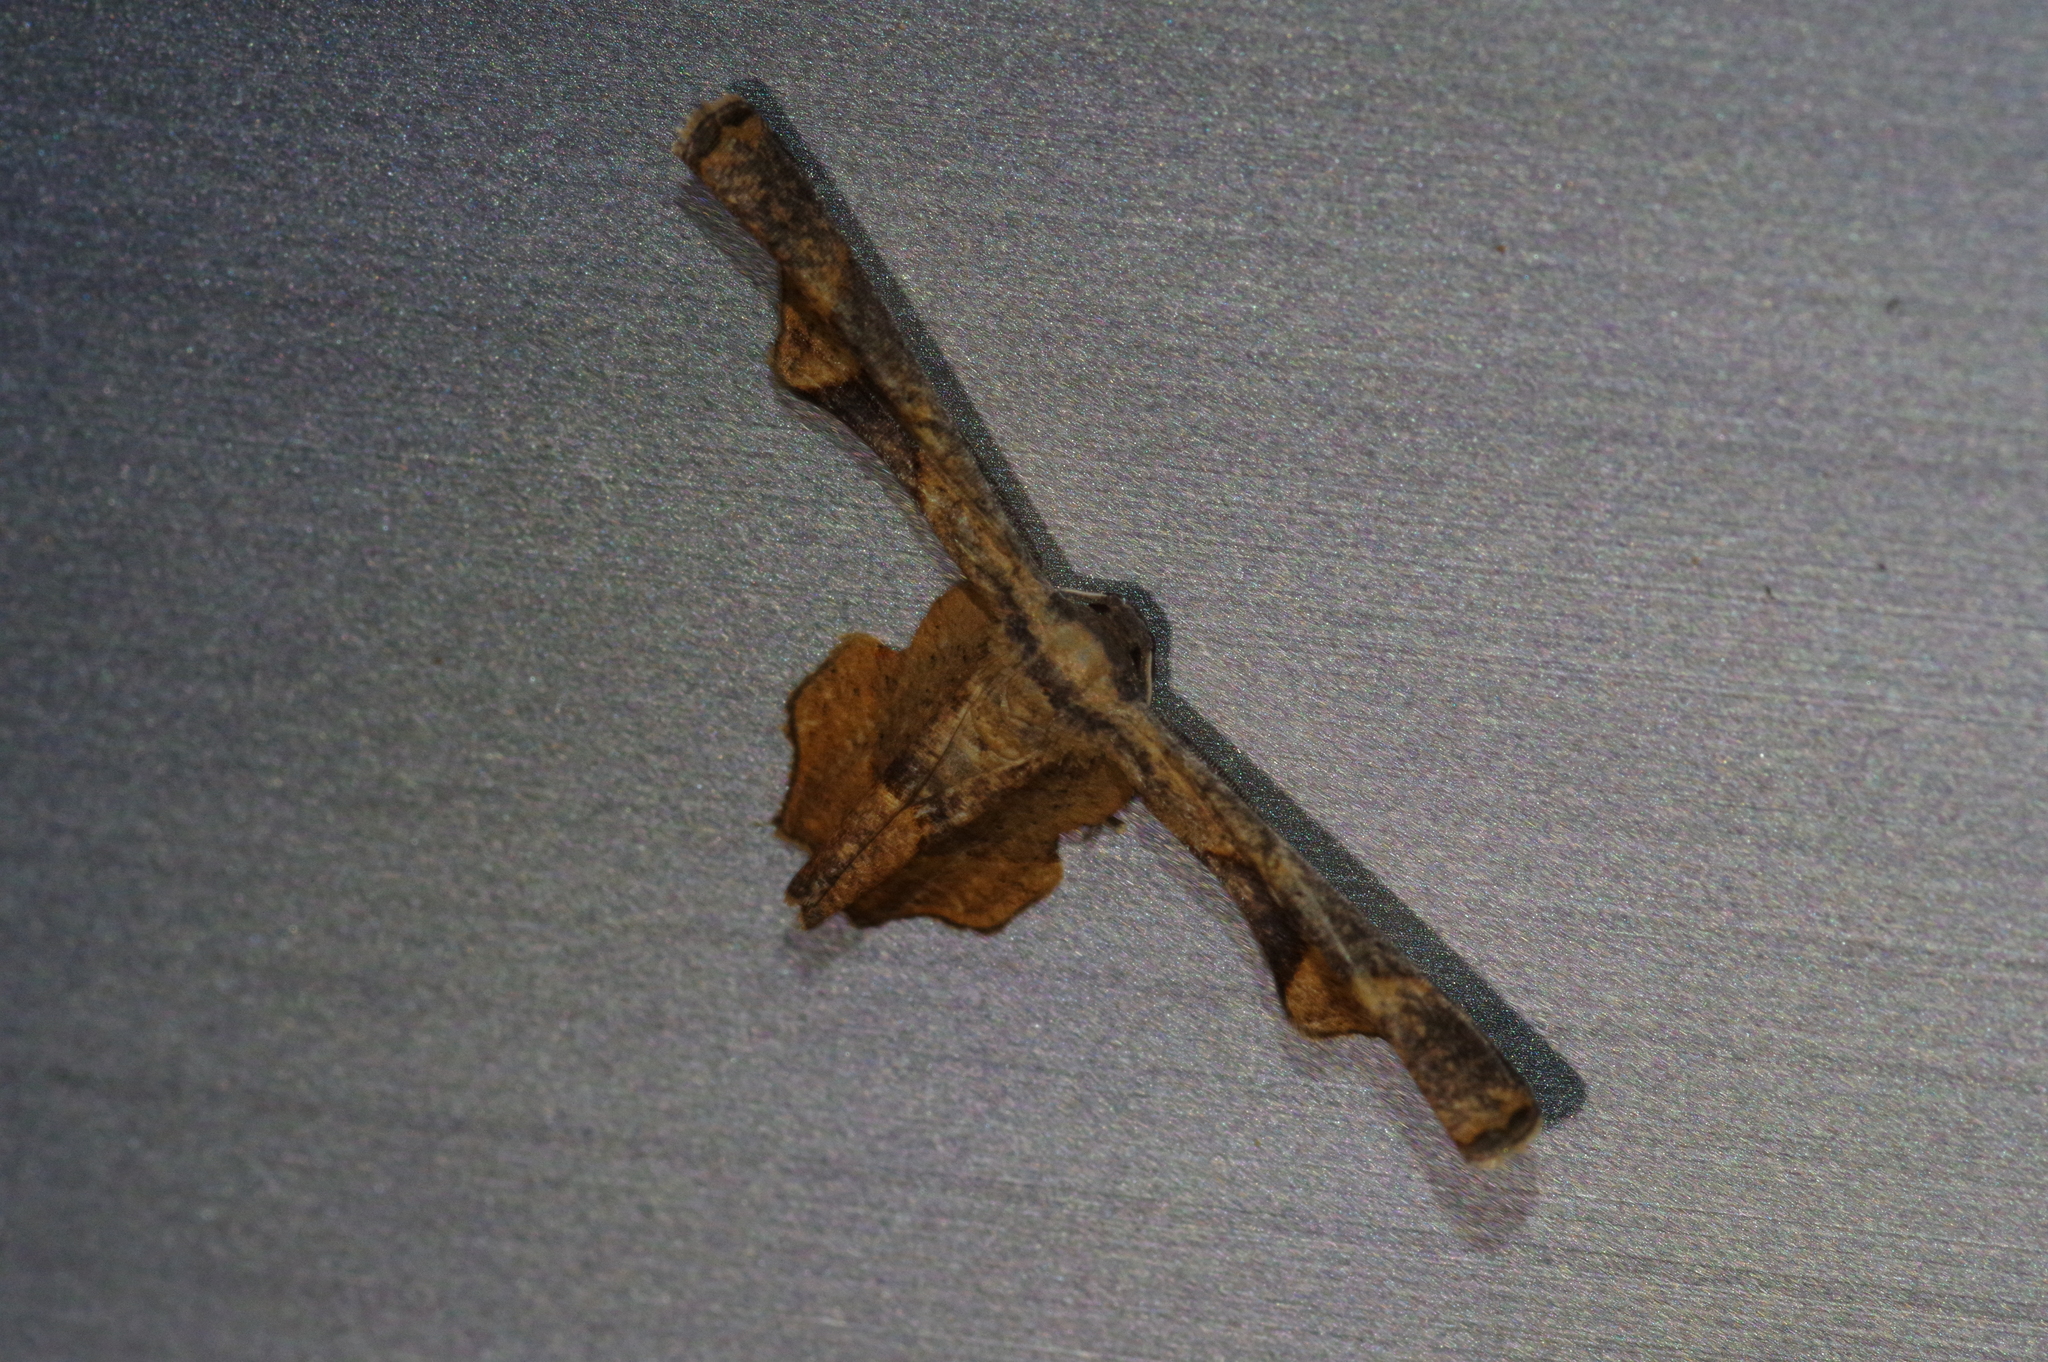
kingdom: Animalia
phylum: Arthropoda
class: Insecta
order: Lepidoptera
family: Uraniidae
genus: Monobolodes
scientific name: Monobolodes prunaria
